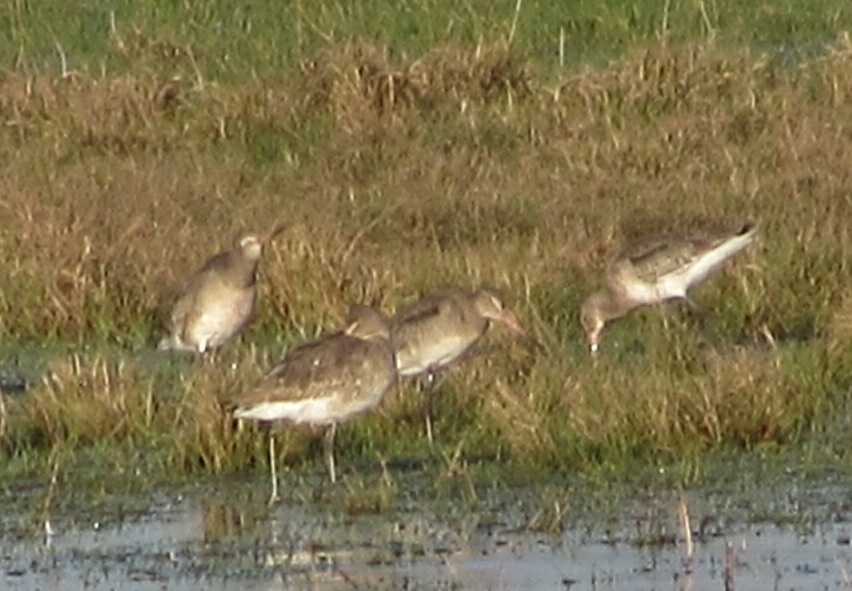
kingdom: Animalia
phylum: Chordata
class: Aves
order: Charadriiformes
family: Scolopacidae
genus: Limosa
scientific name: Limosa limosa
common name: Black-tailed godwit
